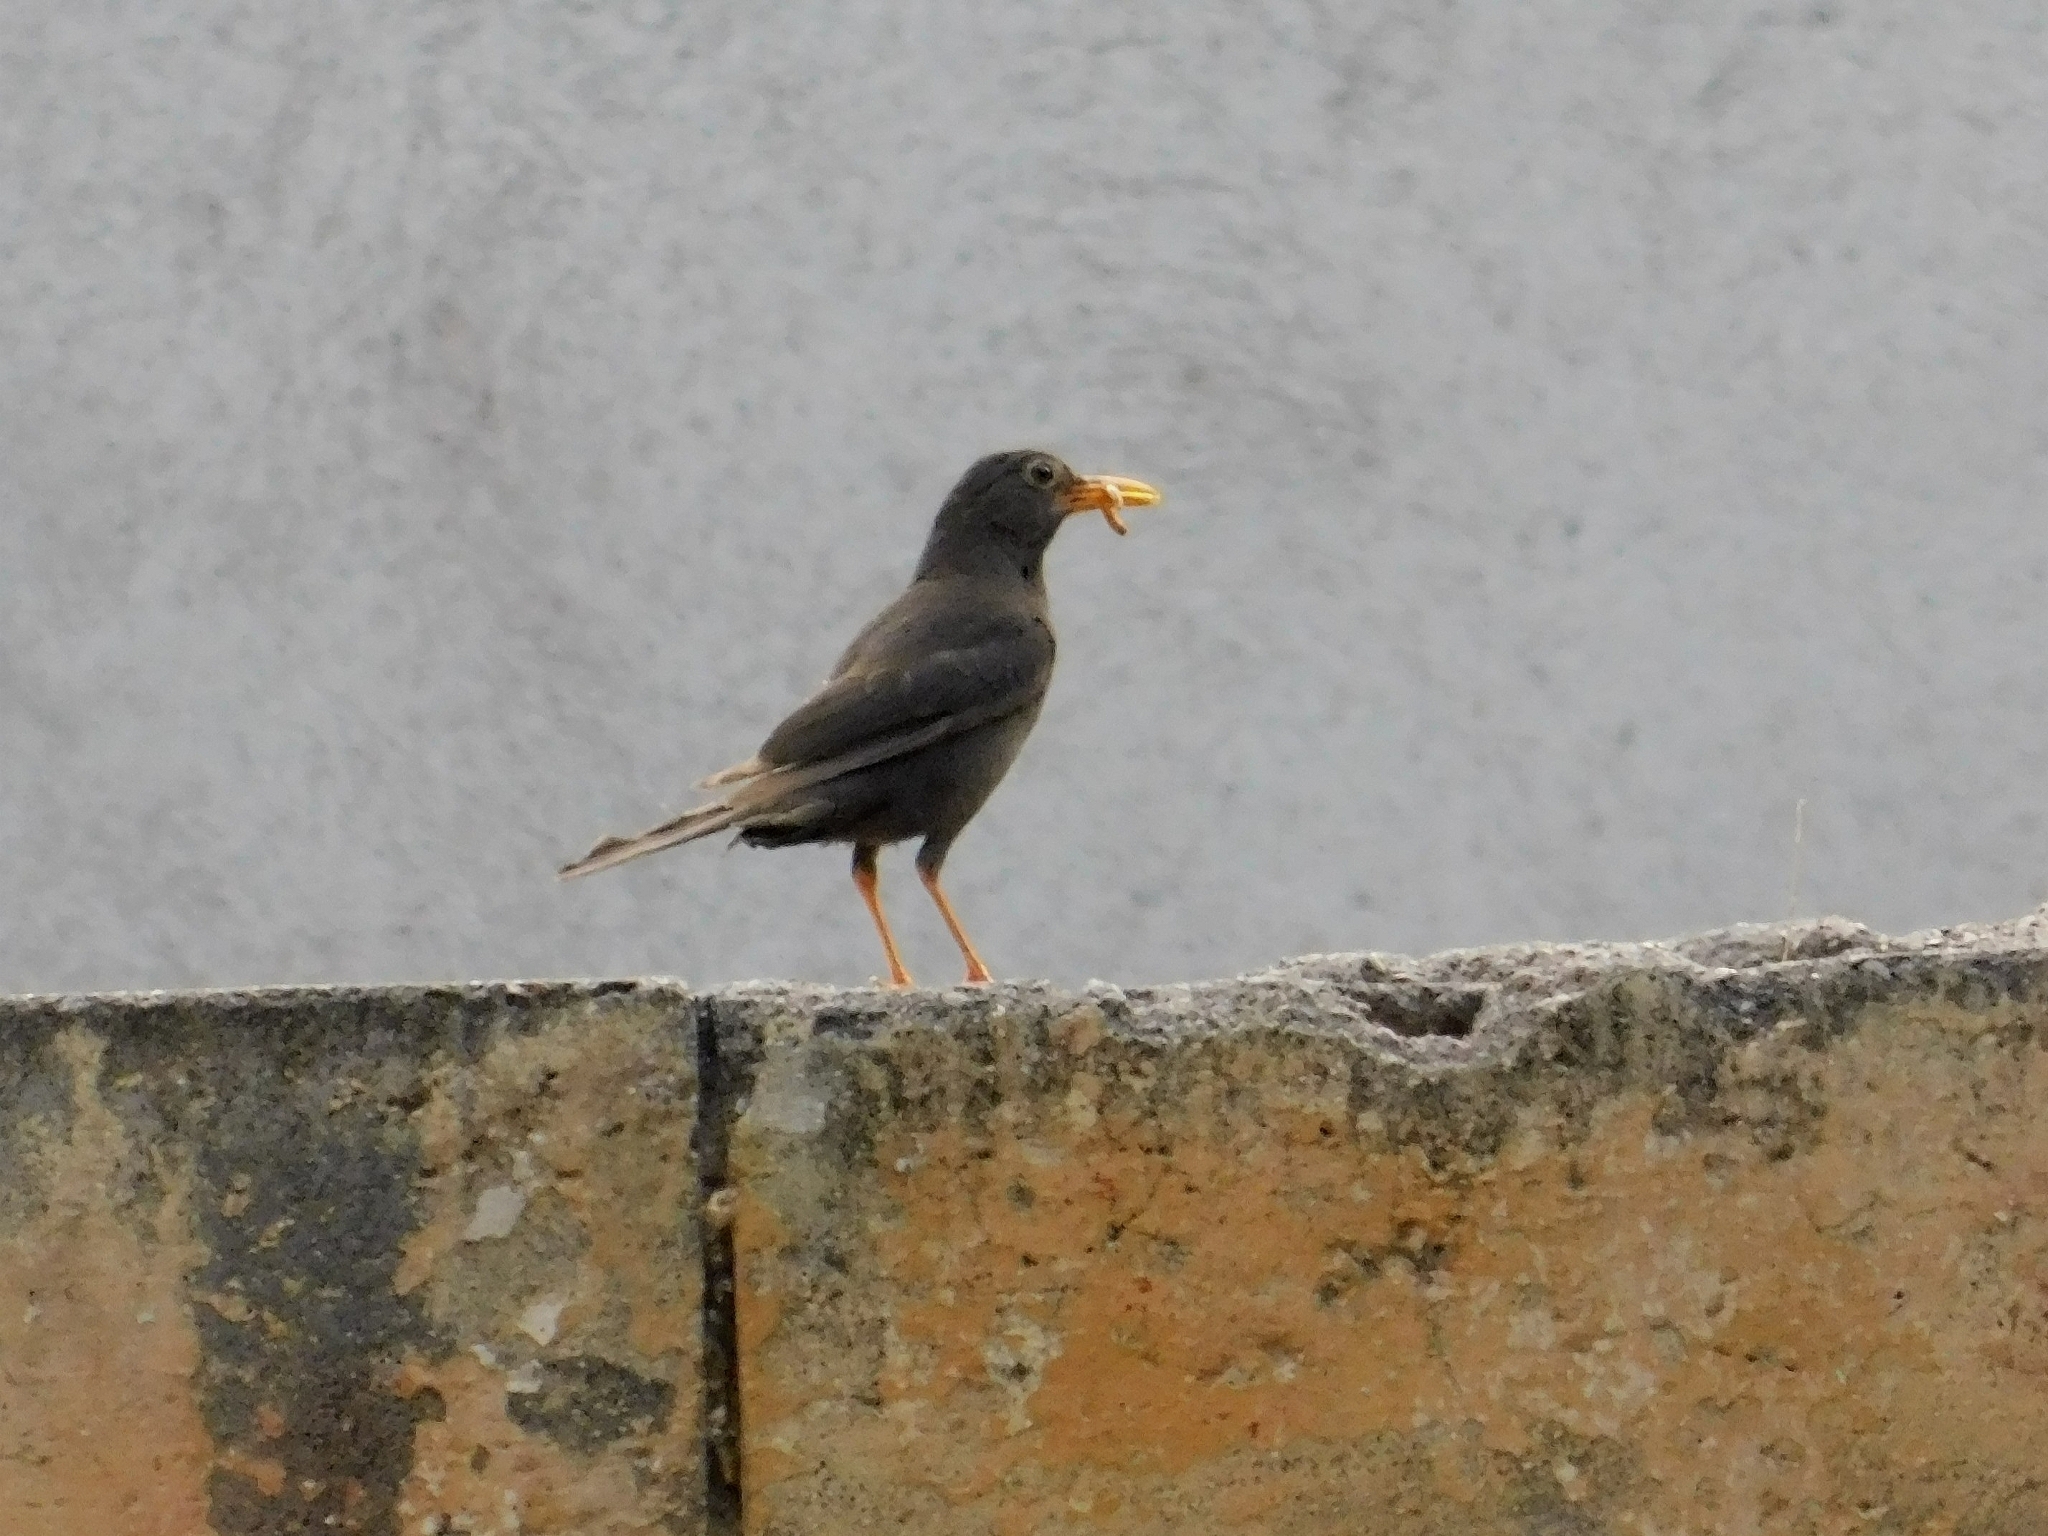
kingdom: Animalia
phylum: Chordata
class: Aves
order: Passeriformes
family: Turdidae
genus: Turdus
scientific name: Turdus chiguanco
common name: Chiguanco thrush
